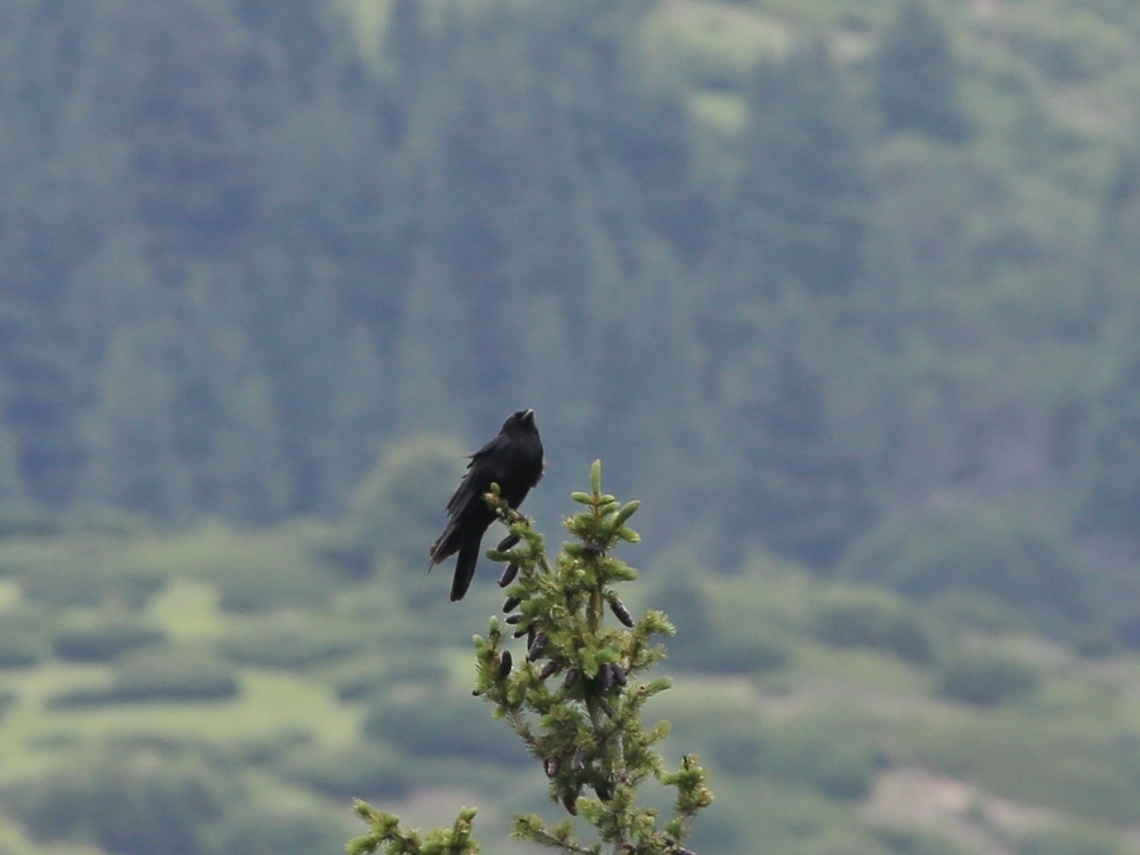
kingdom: Animalia
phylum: Chordata
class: Aves
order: Passeriformes
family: Corvidae
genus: Pyrrhocorax
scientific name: Pyrrhocorax graculus
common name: Alpine chough
